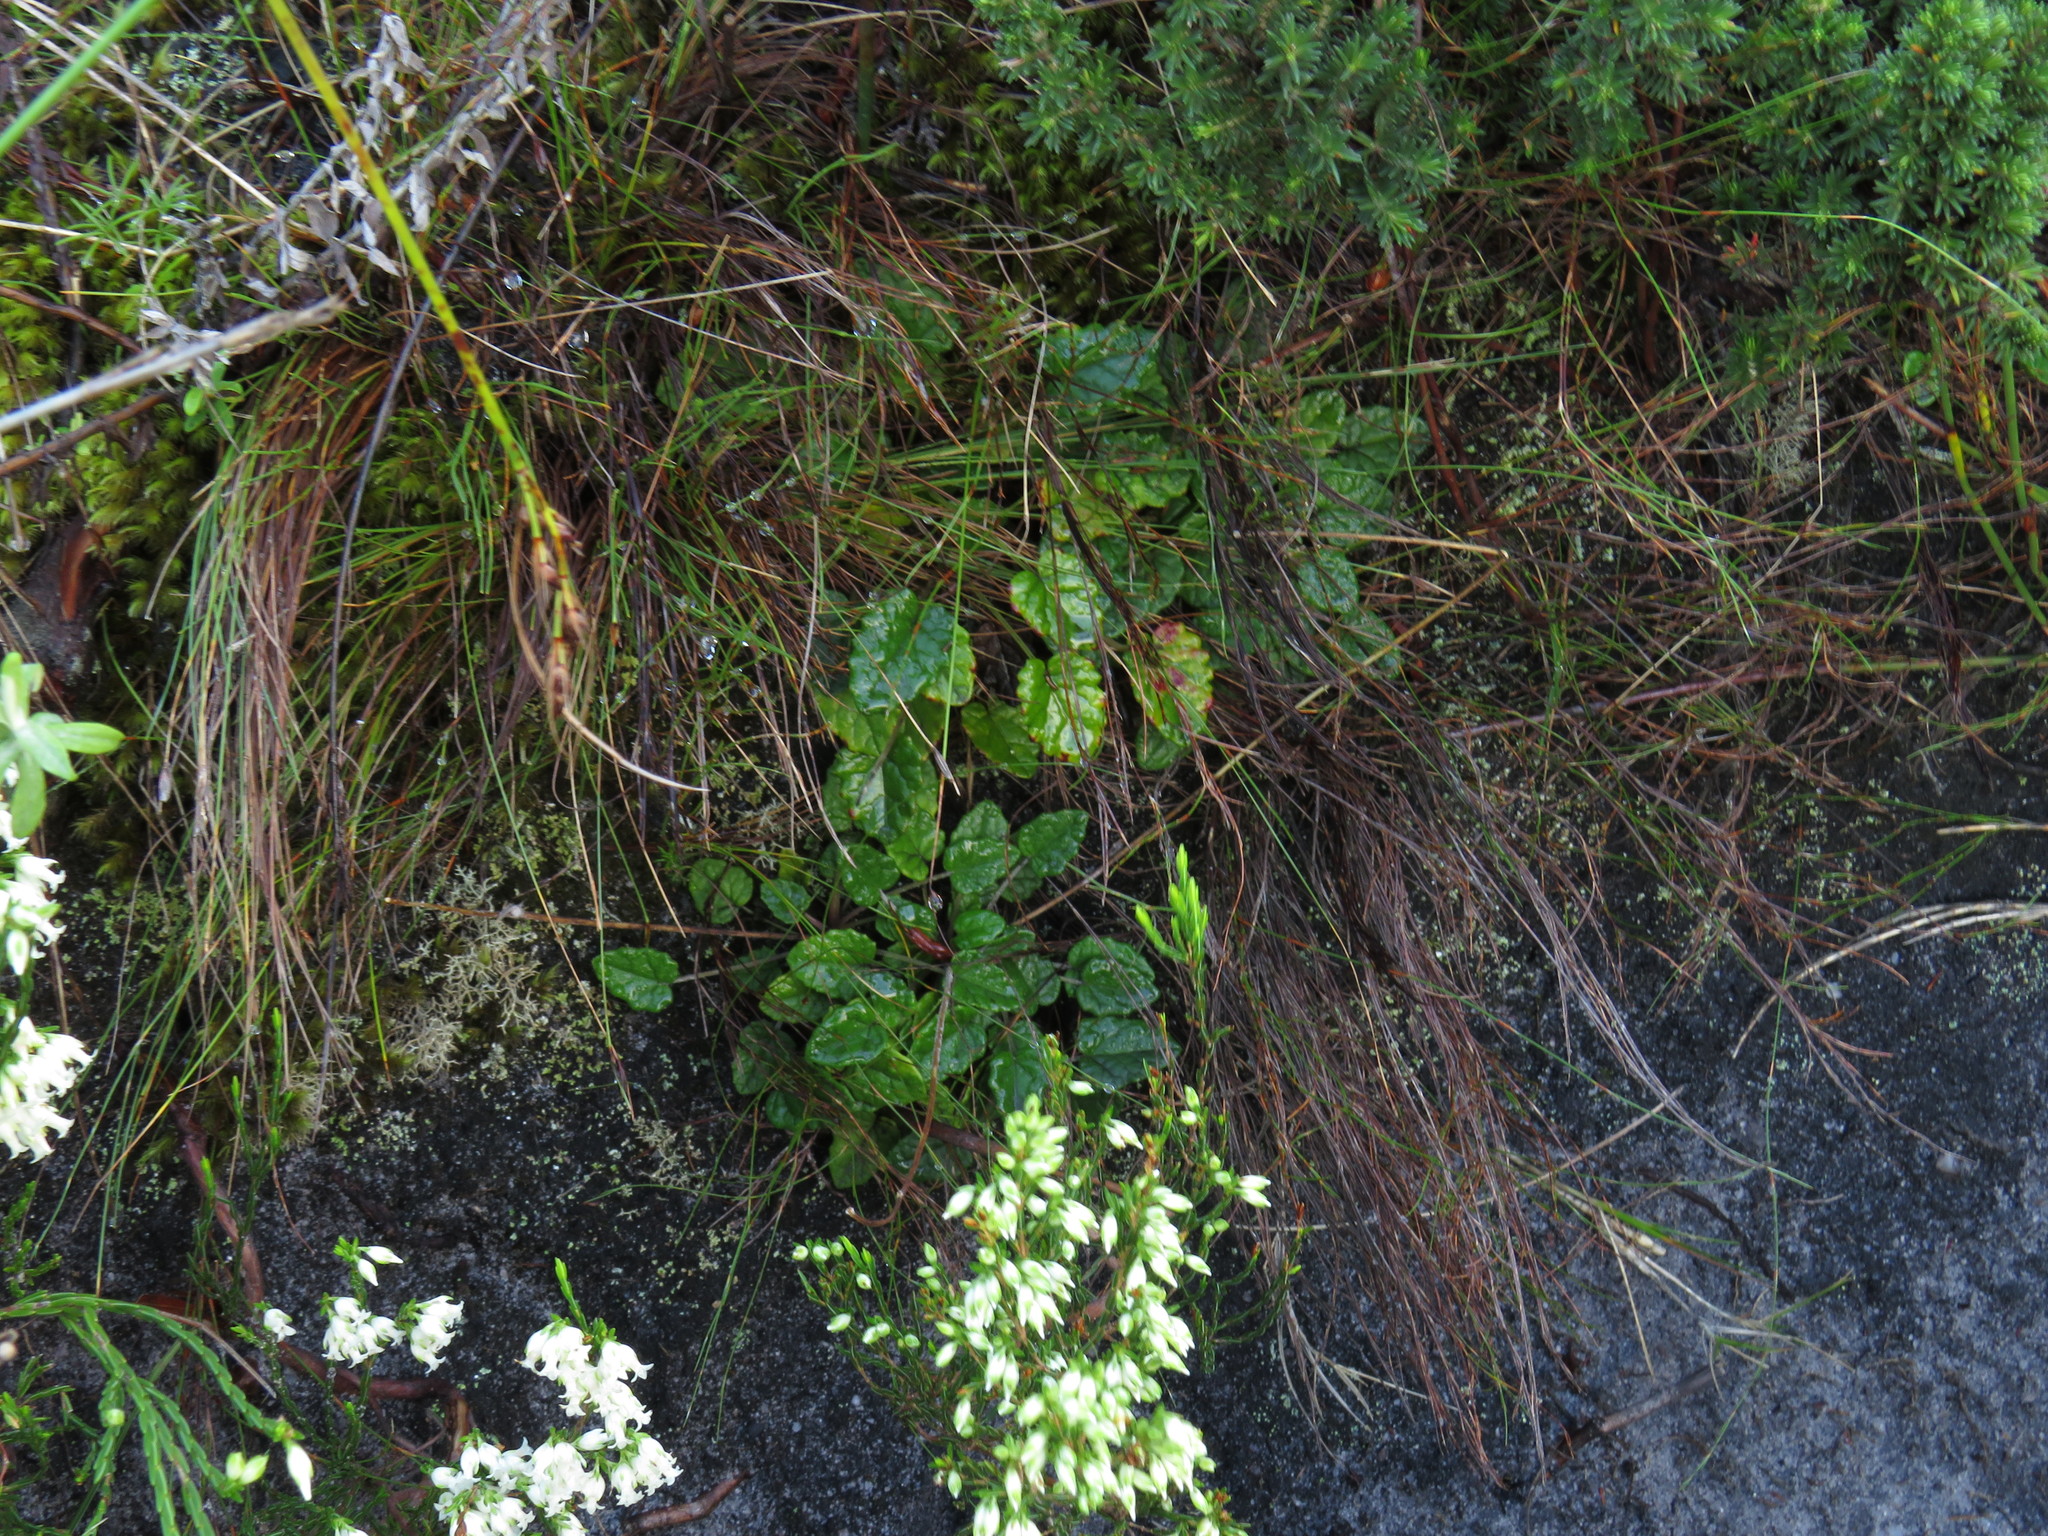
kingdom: Plantae
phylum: Tracheophyta
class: Magnoliopsida
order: Apiales
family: Apiaceae
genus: Hermas
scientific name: Hermas capitata
